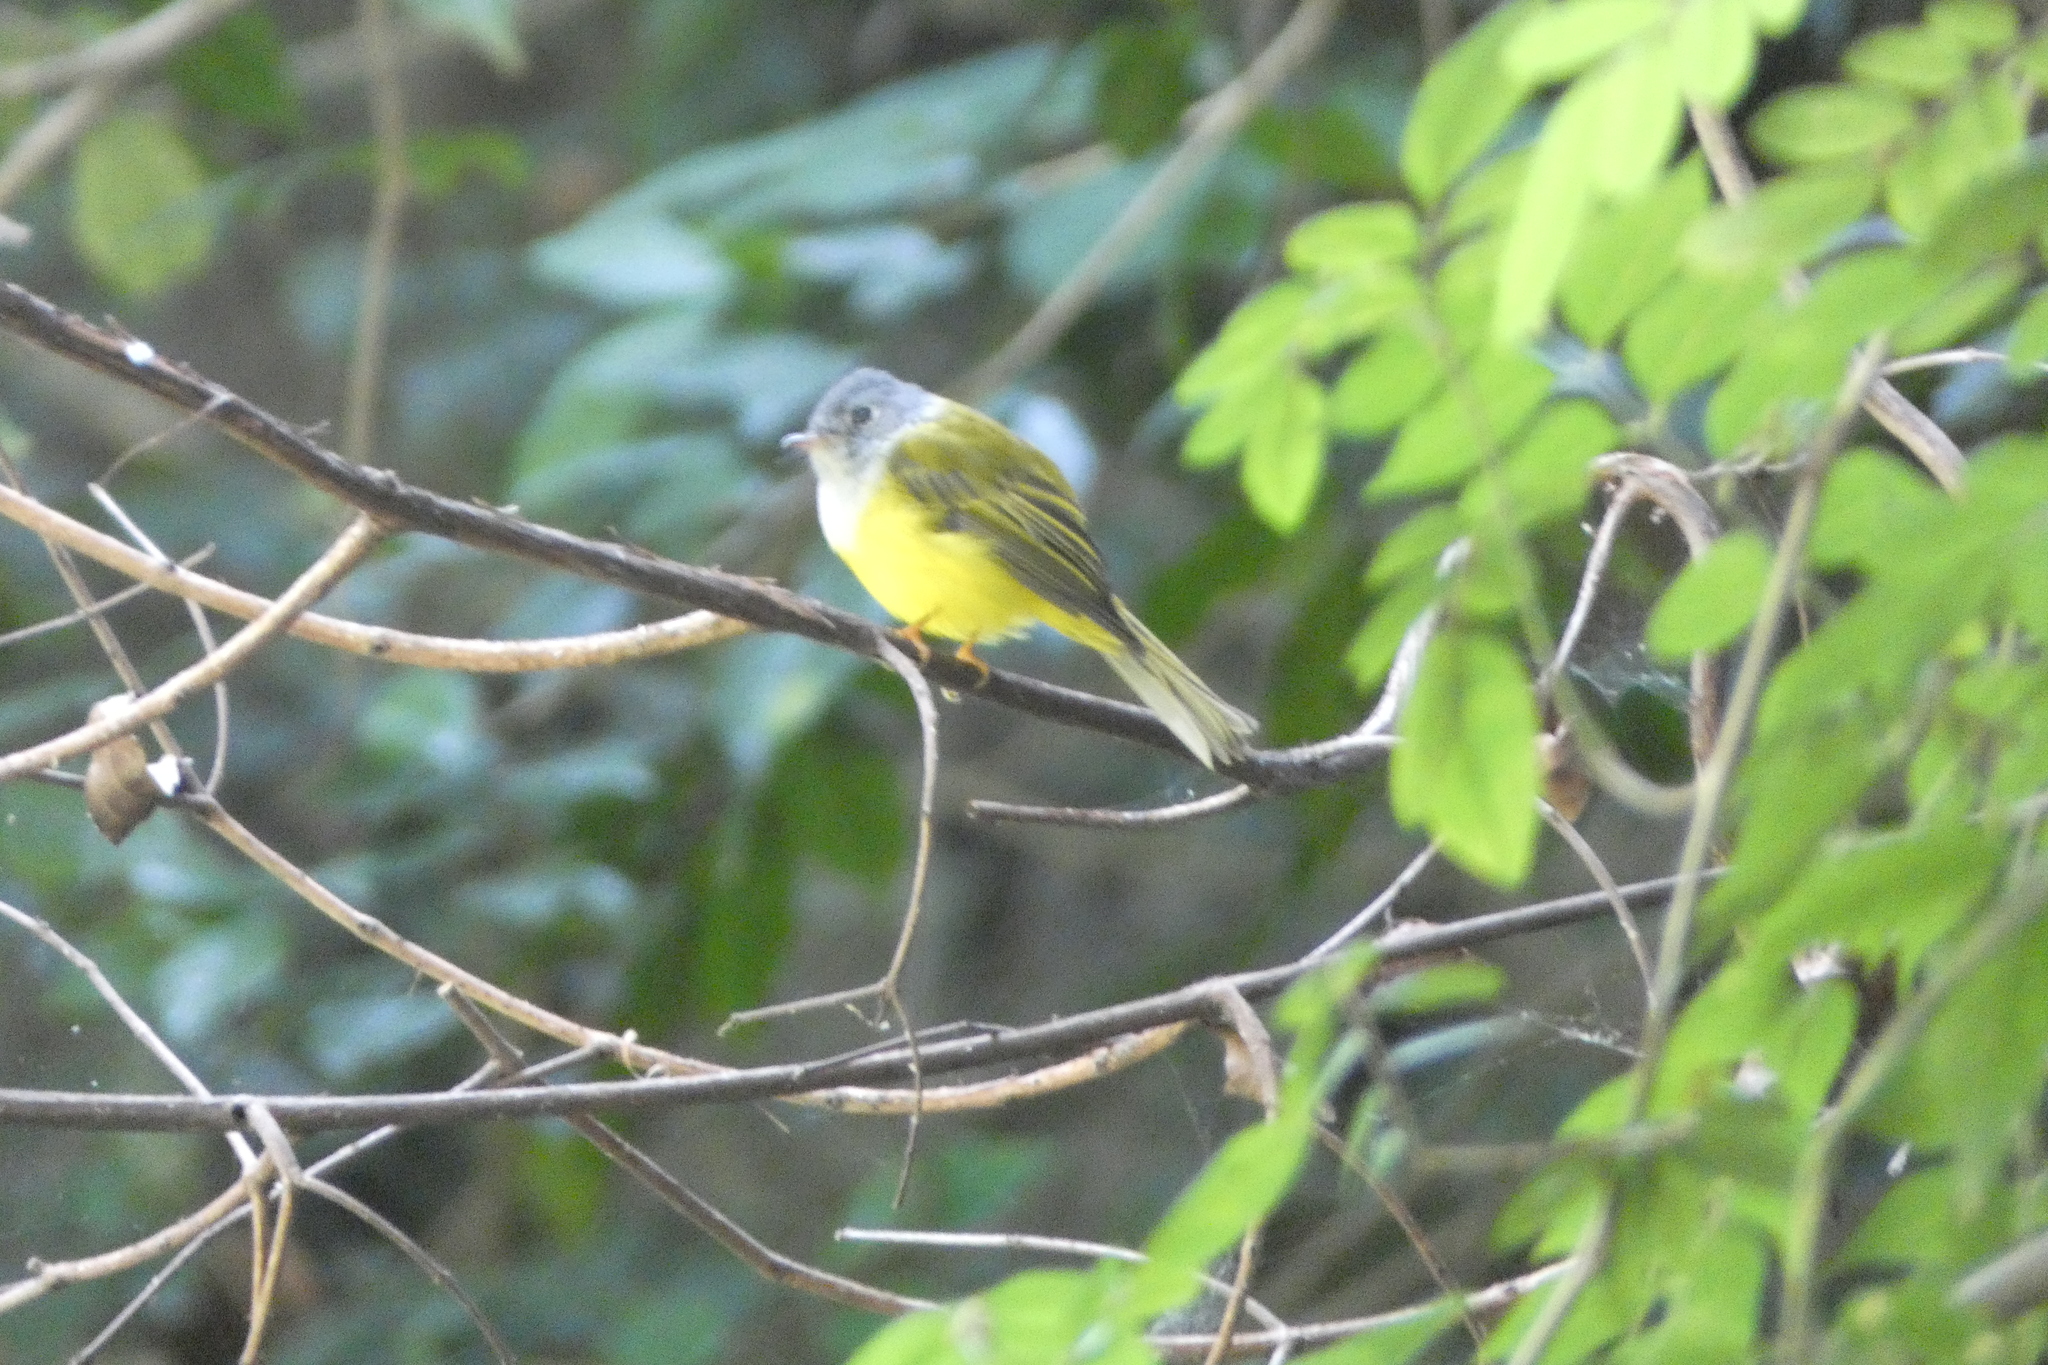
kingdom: Animalia
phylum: Chordata
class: Aves
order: Passeriformes
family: Stenostiridae
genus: Culicicapa
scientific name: Culicicapa ceylonensis
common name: Grey-headed canary-flycatcher
